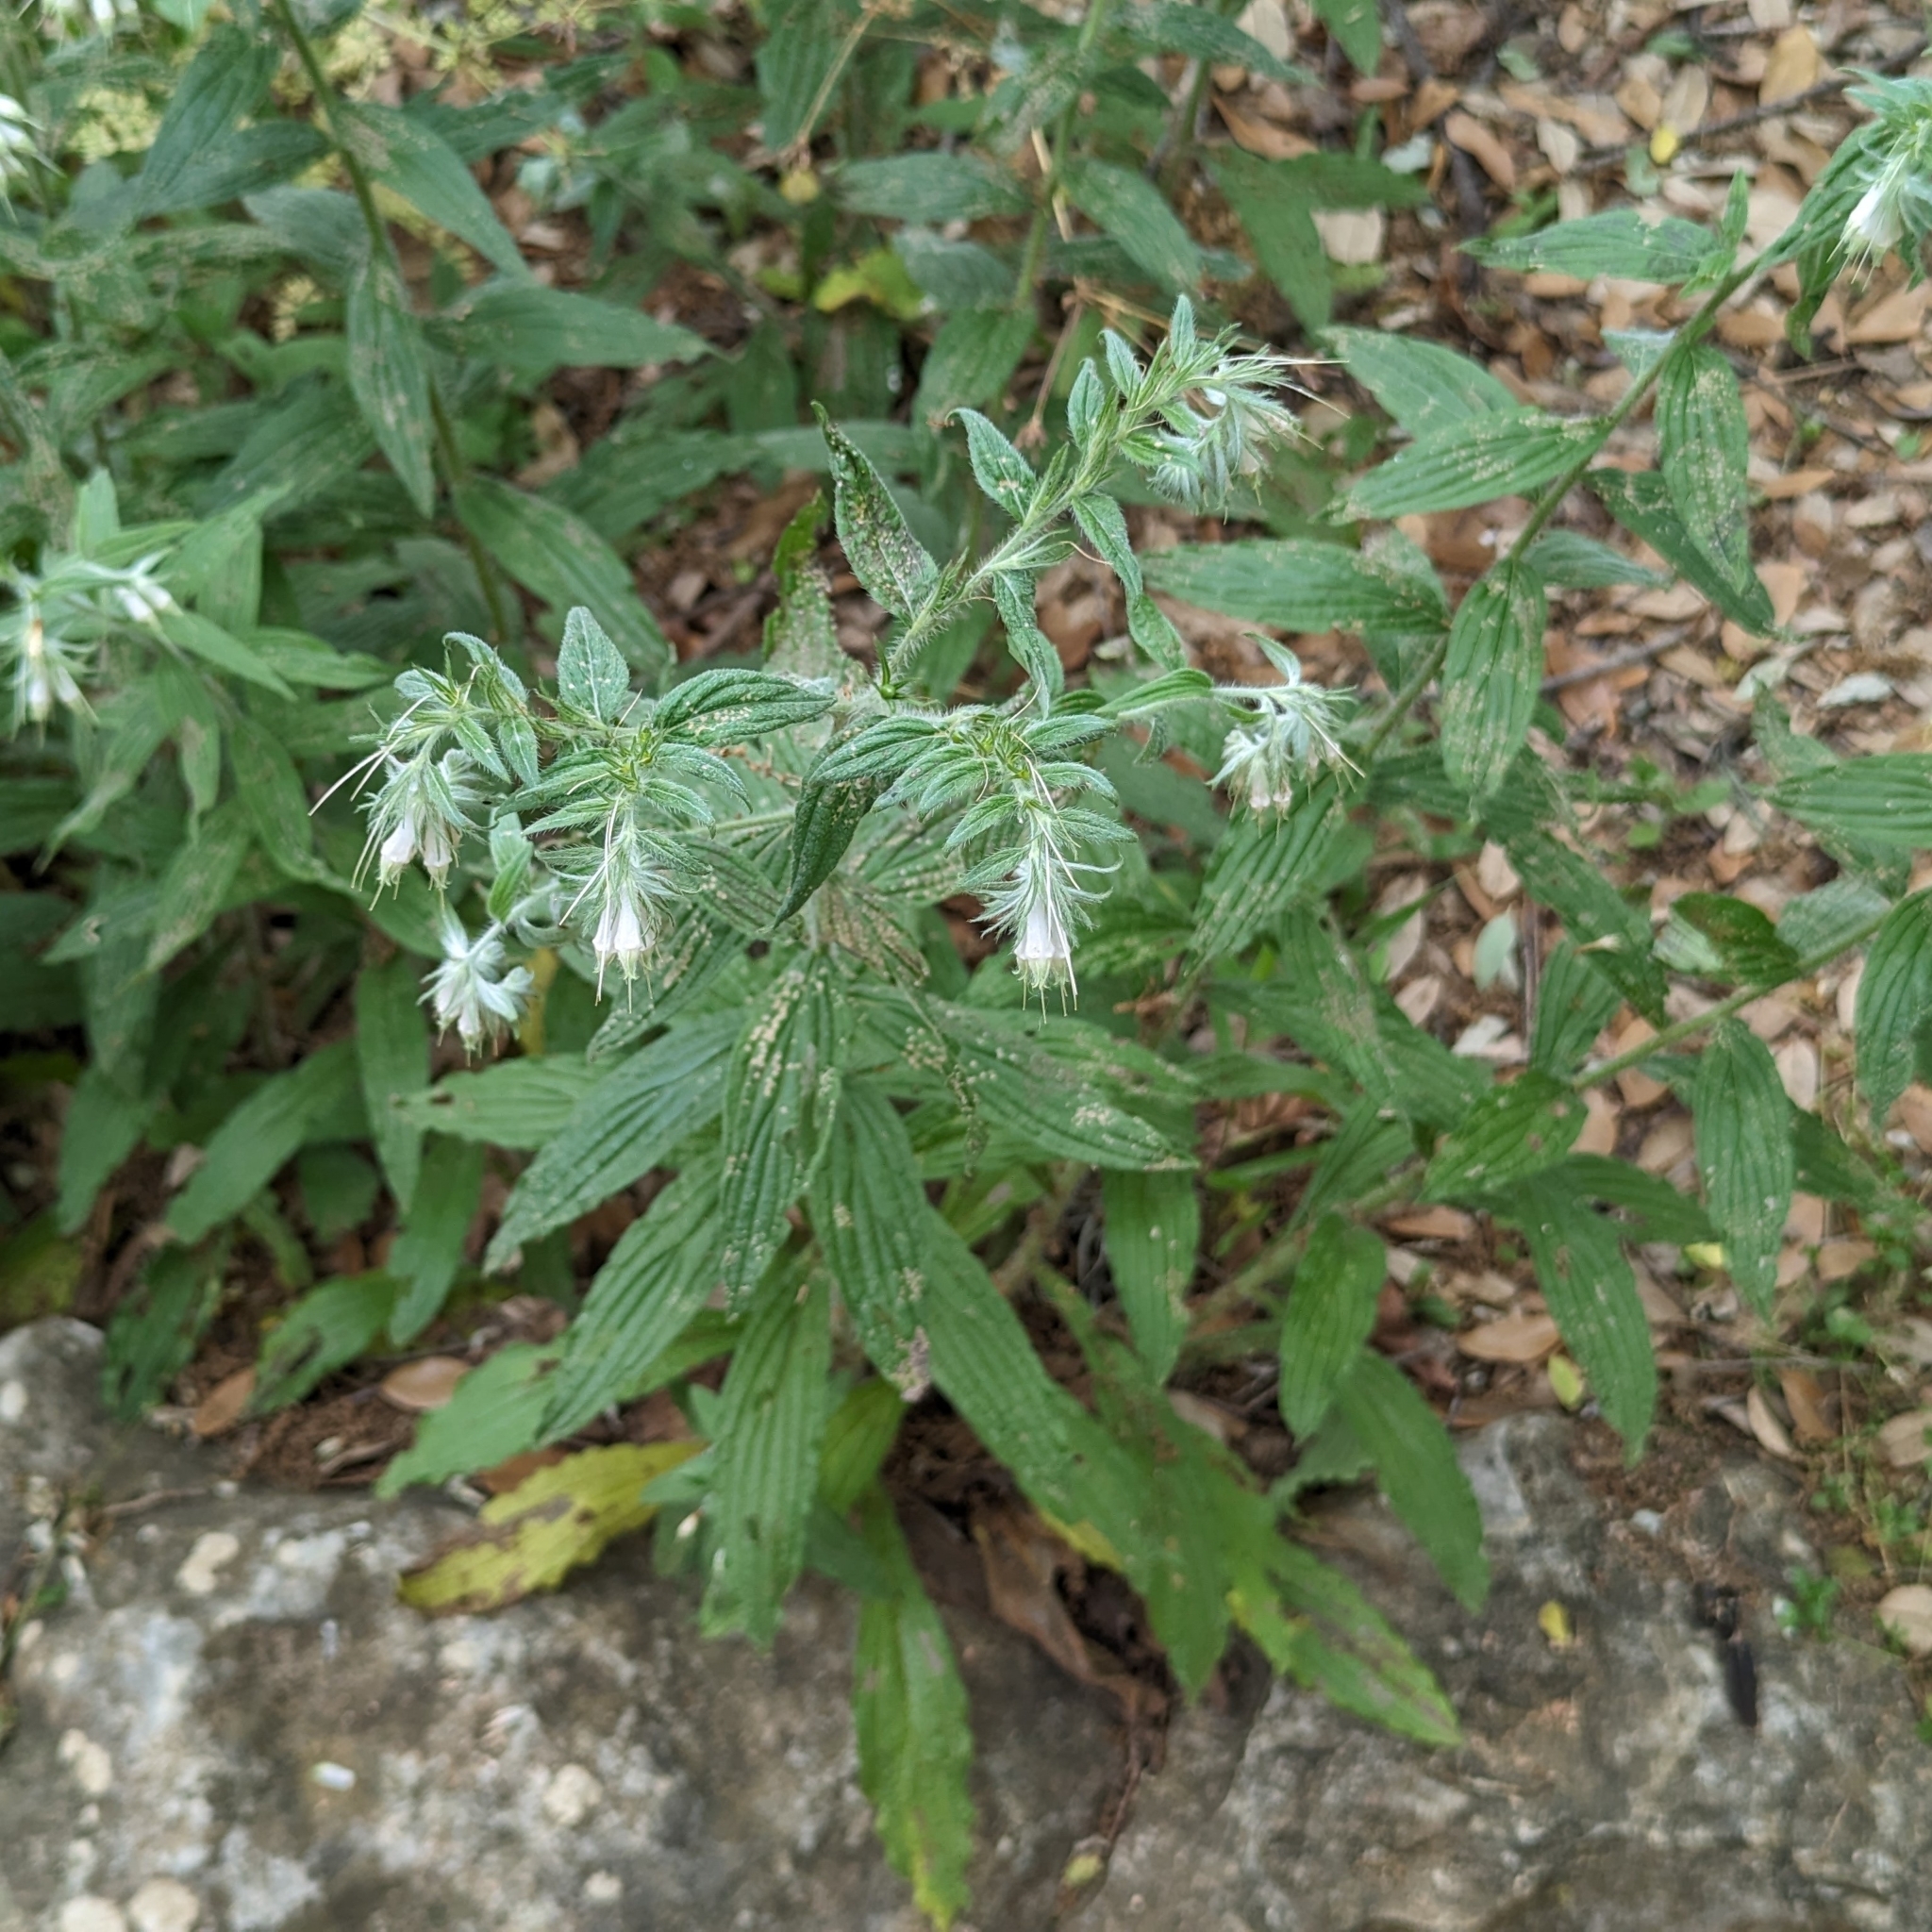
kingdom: Plantae
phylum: Tracheophyta
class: Magnoliopsida
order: Boraginales
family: Boraginaceae
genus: Lithospermum
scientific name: Lithospermum caroliniense
